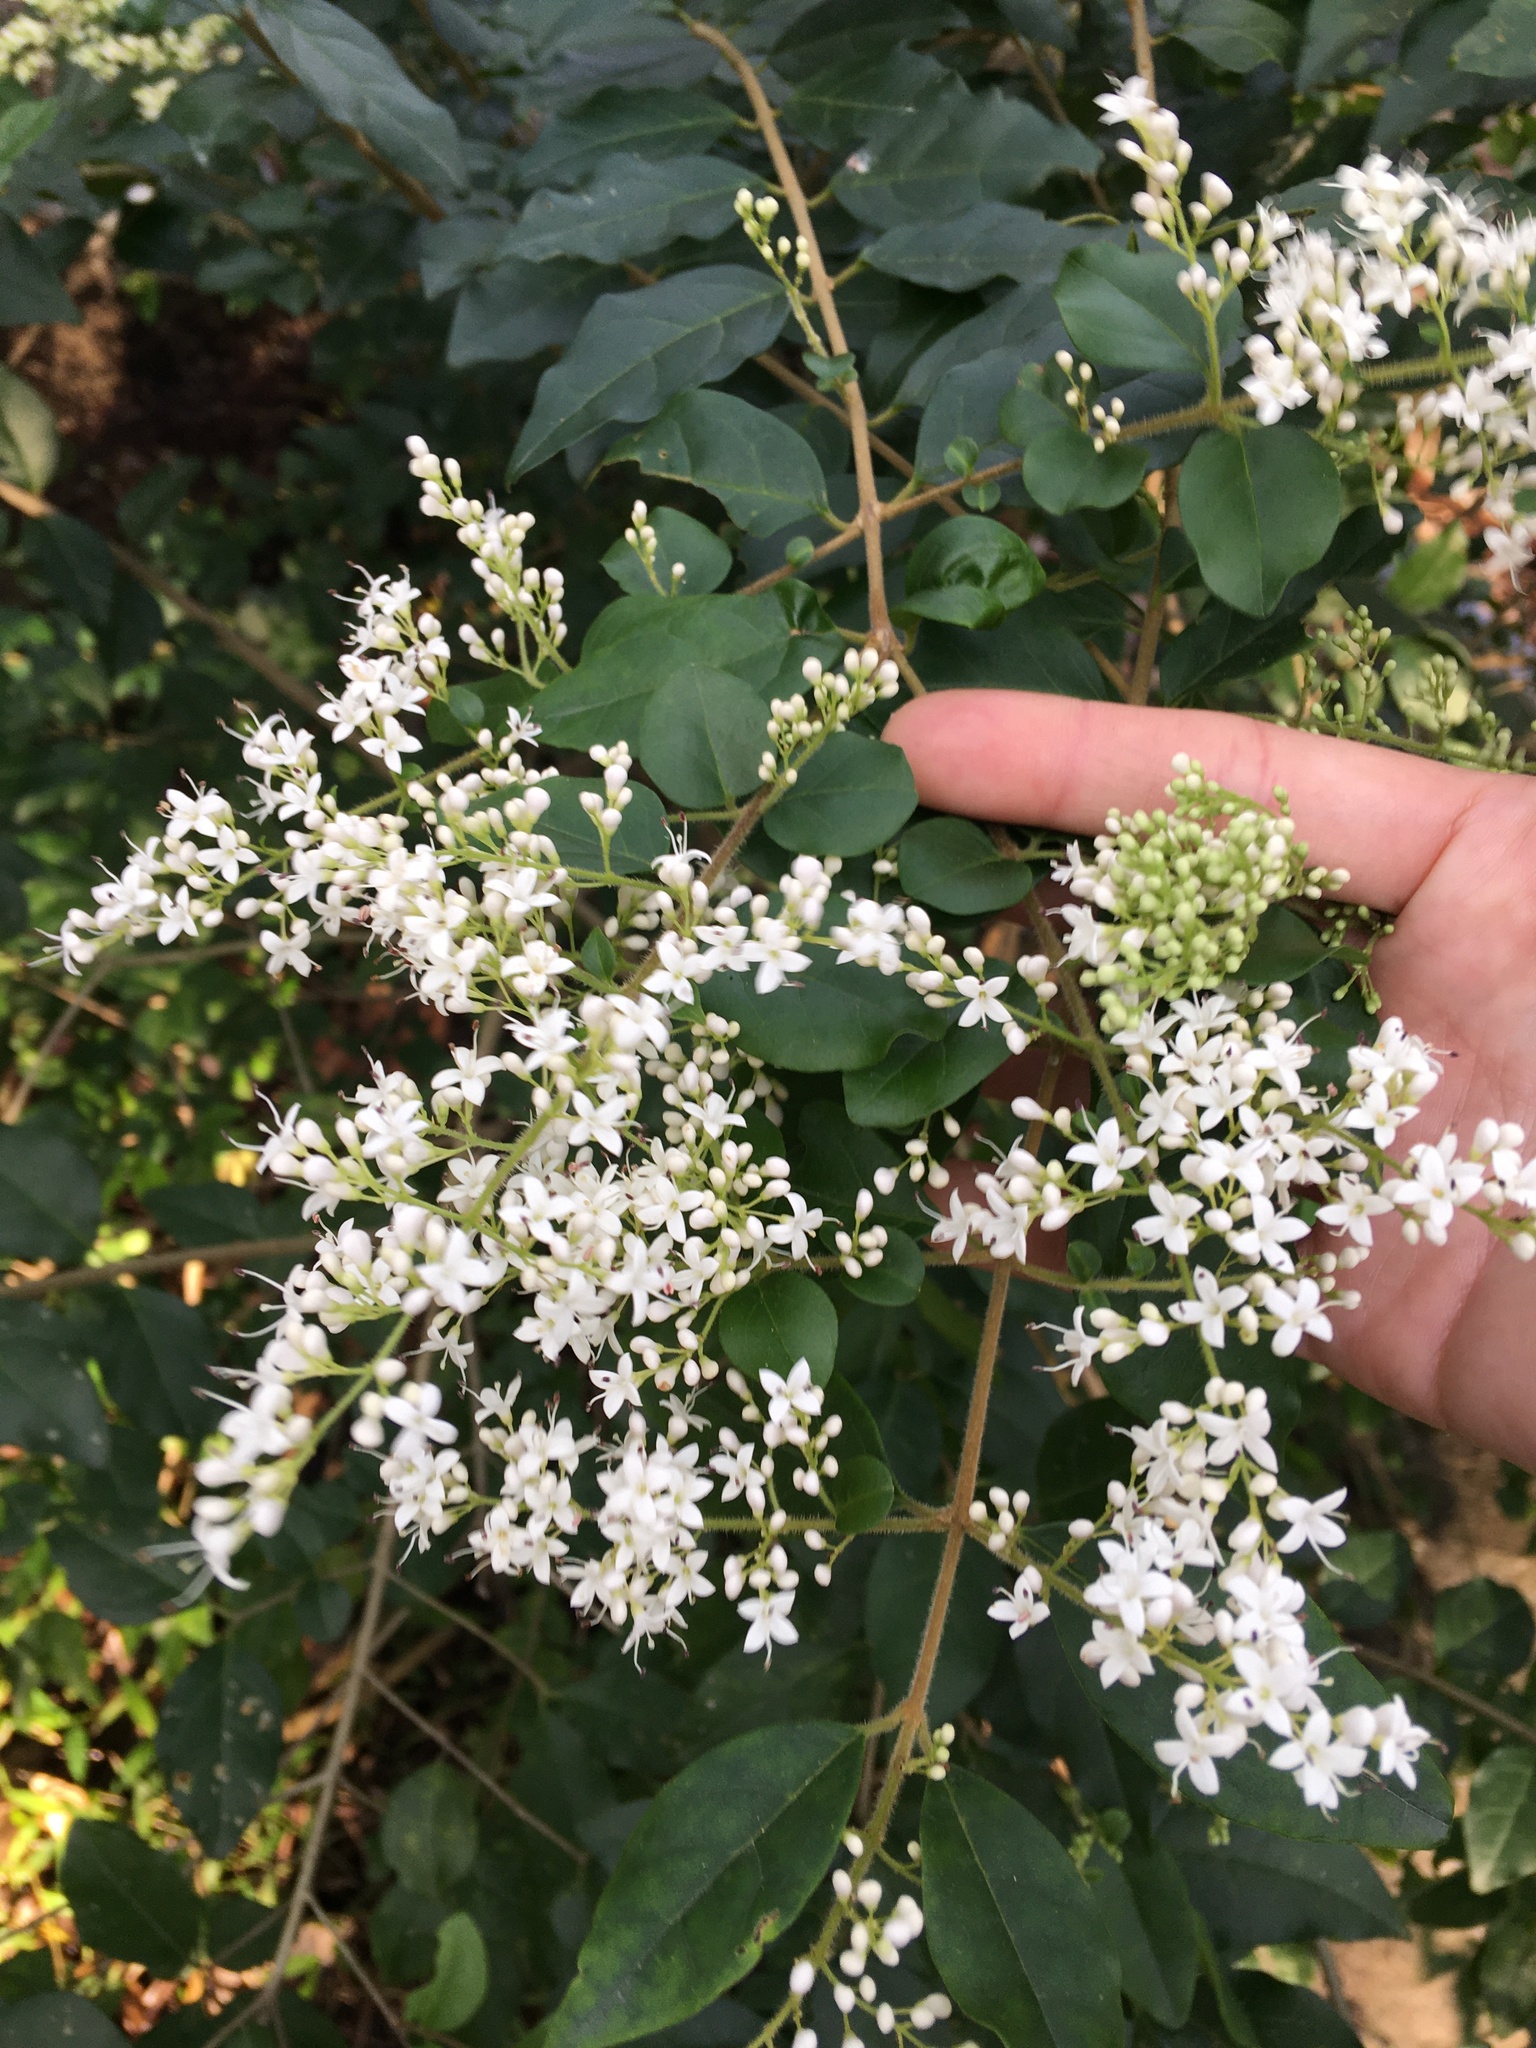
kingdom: Plantae
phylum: Tracheophyta
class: Magnoliopsida
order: Lamiales
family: Oleaceae
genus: Ligustrum
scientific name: Ligustrum sinense
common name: Chinese privet
